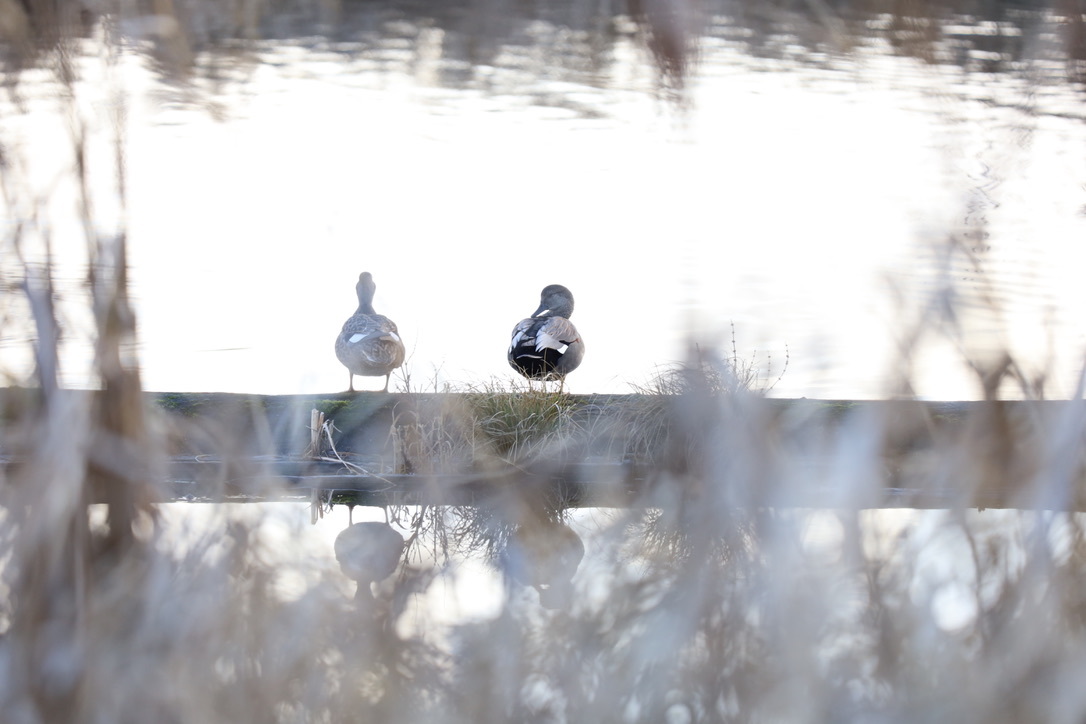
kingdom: Animalia
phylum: Chordata
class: Aves
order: Anseriformes
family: Anatidae
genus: Mareca
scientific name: Mareca strepera
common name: Gadwall
